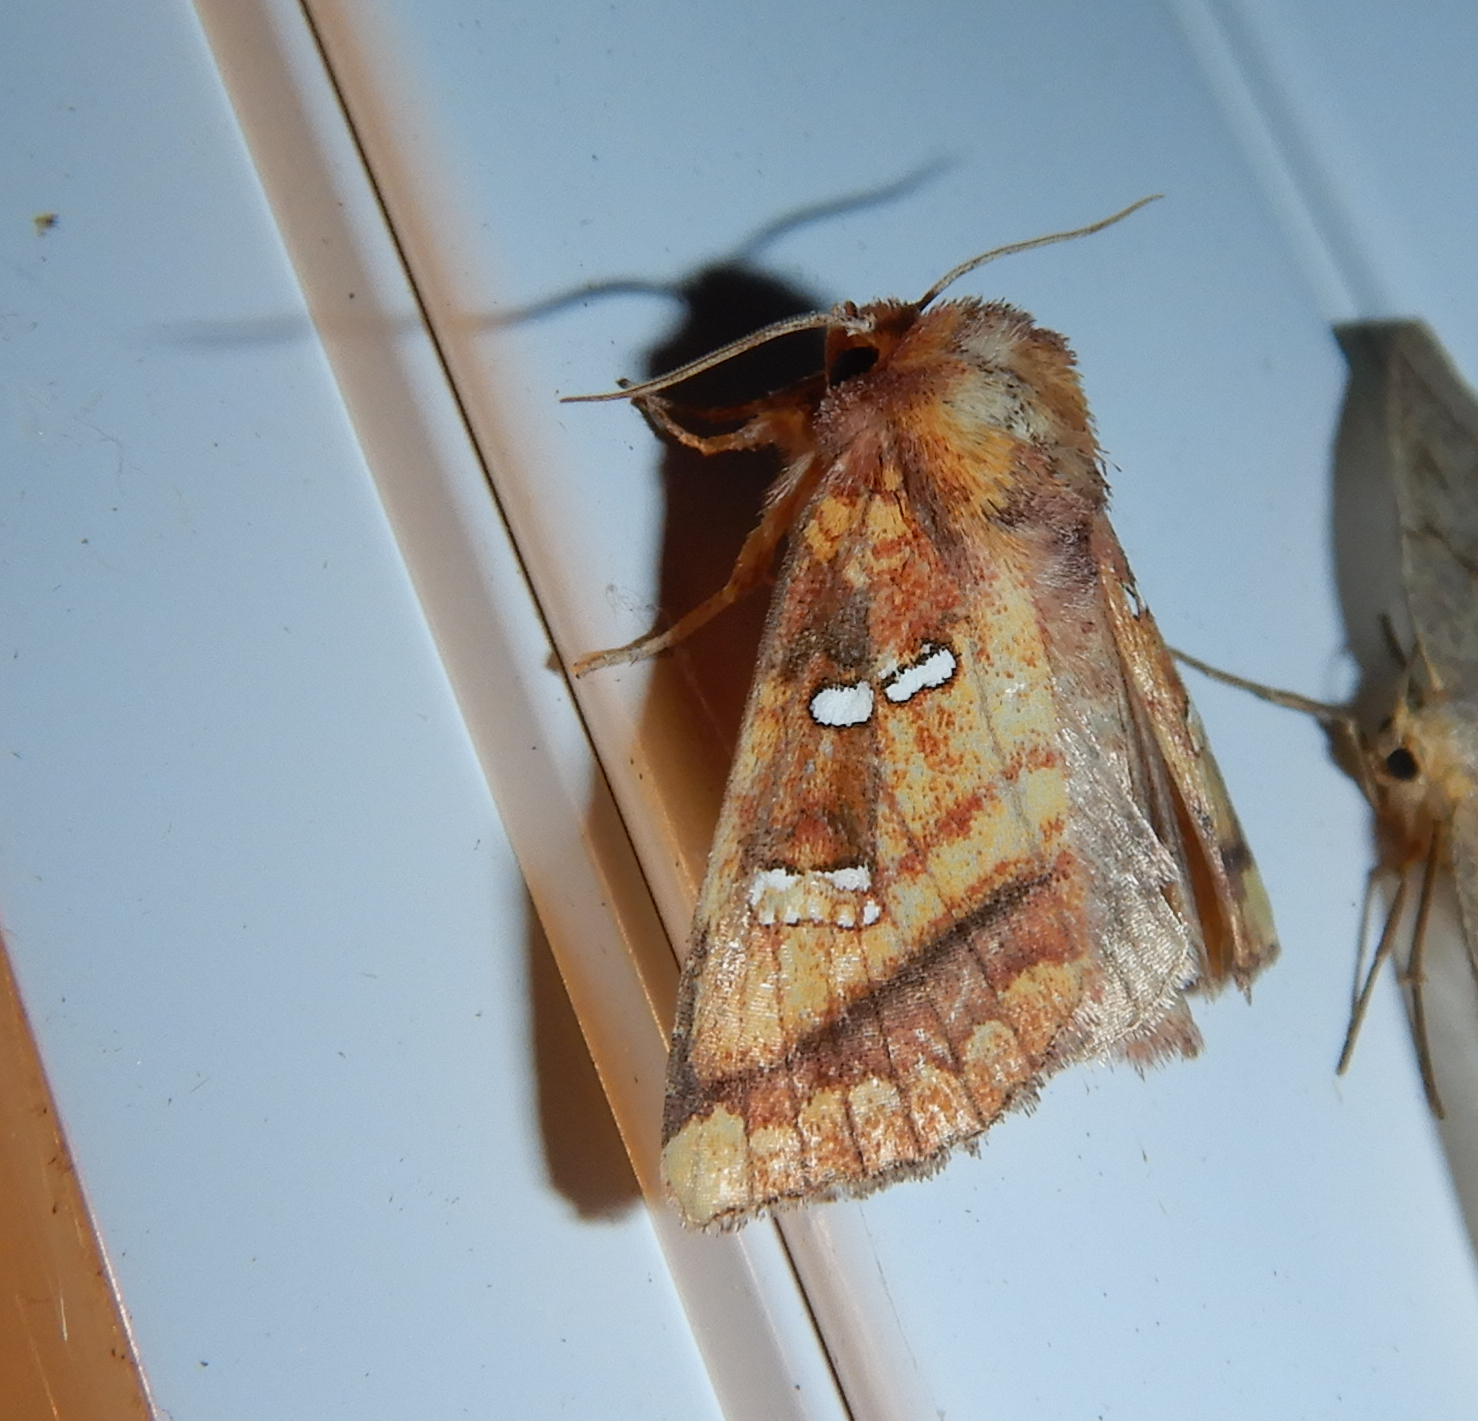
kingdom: Animalia
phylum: Arthropoda
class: Insecta
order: Lepidoptera
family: Noctuidae
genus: Papaipema
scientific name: Papaipema pterisii
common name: Bracken borer moth
